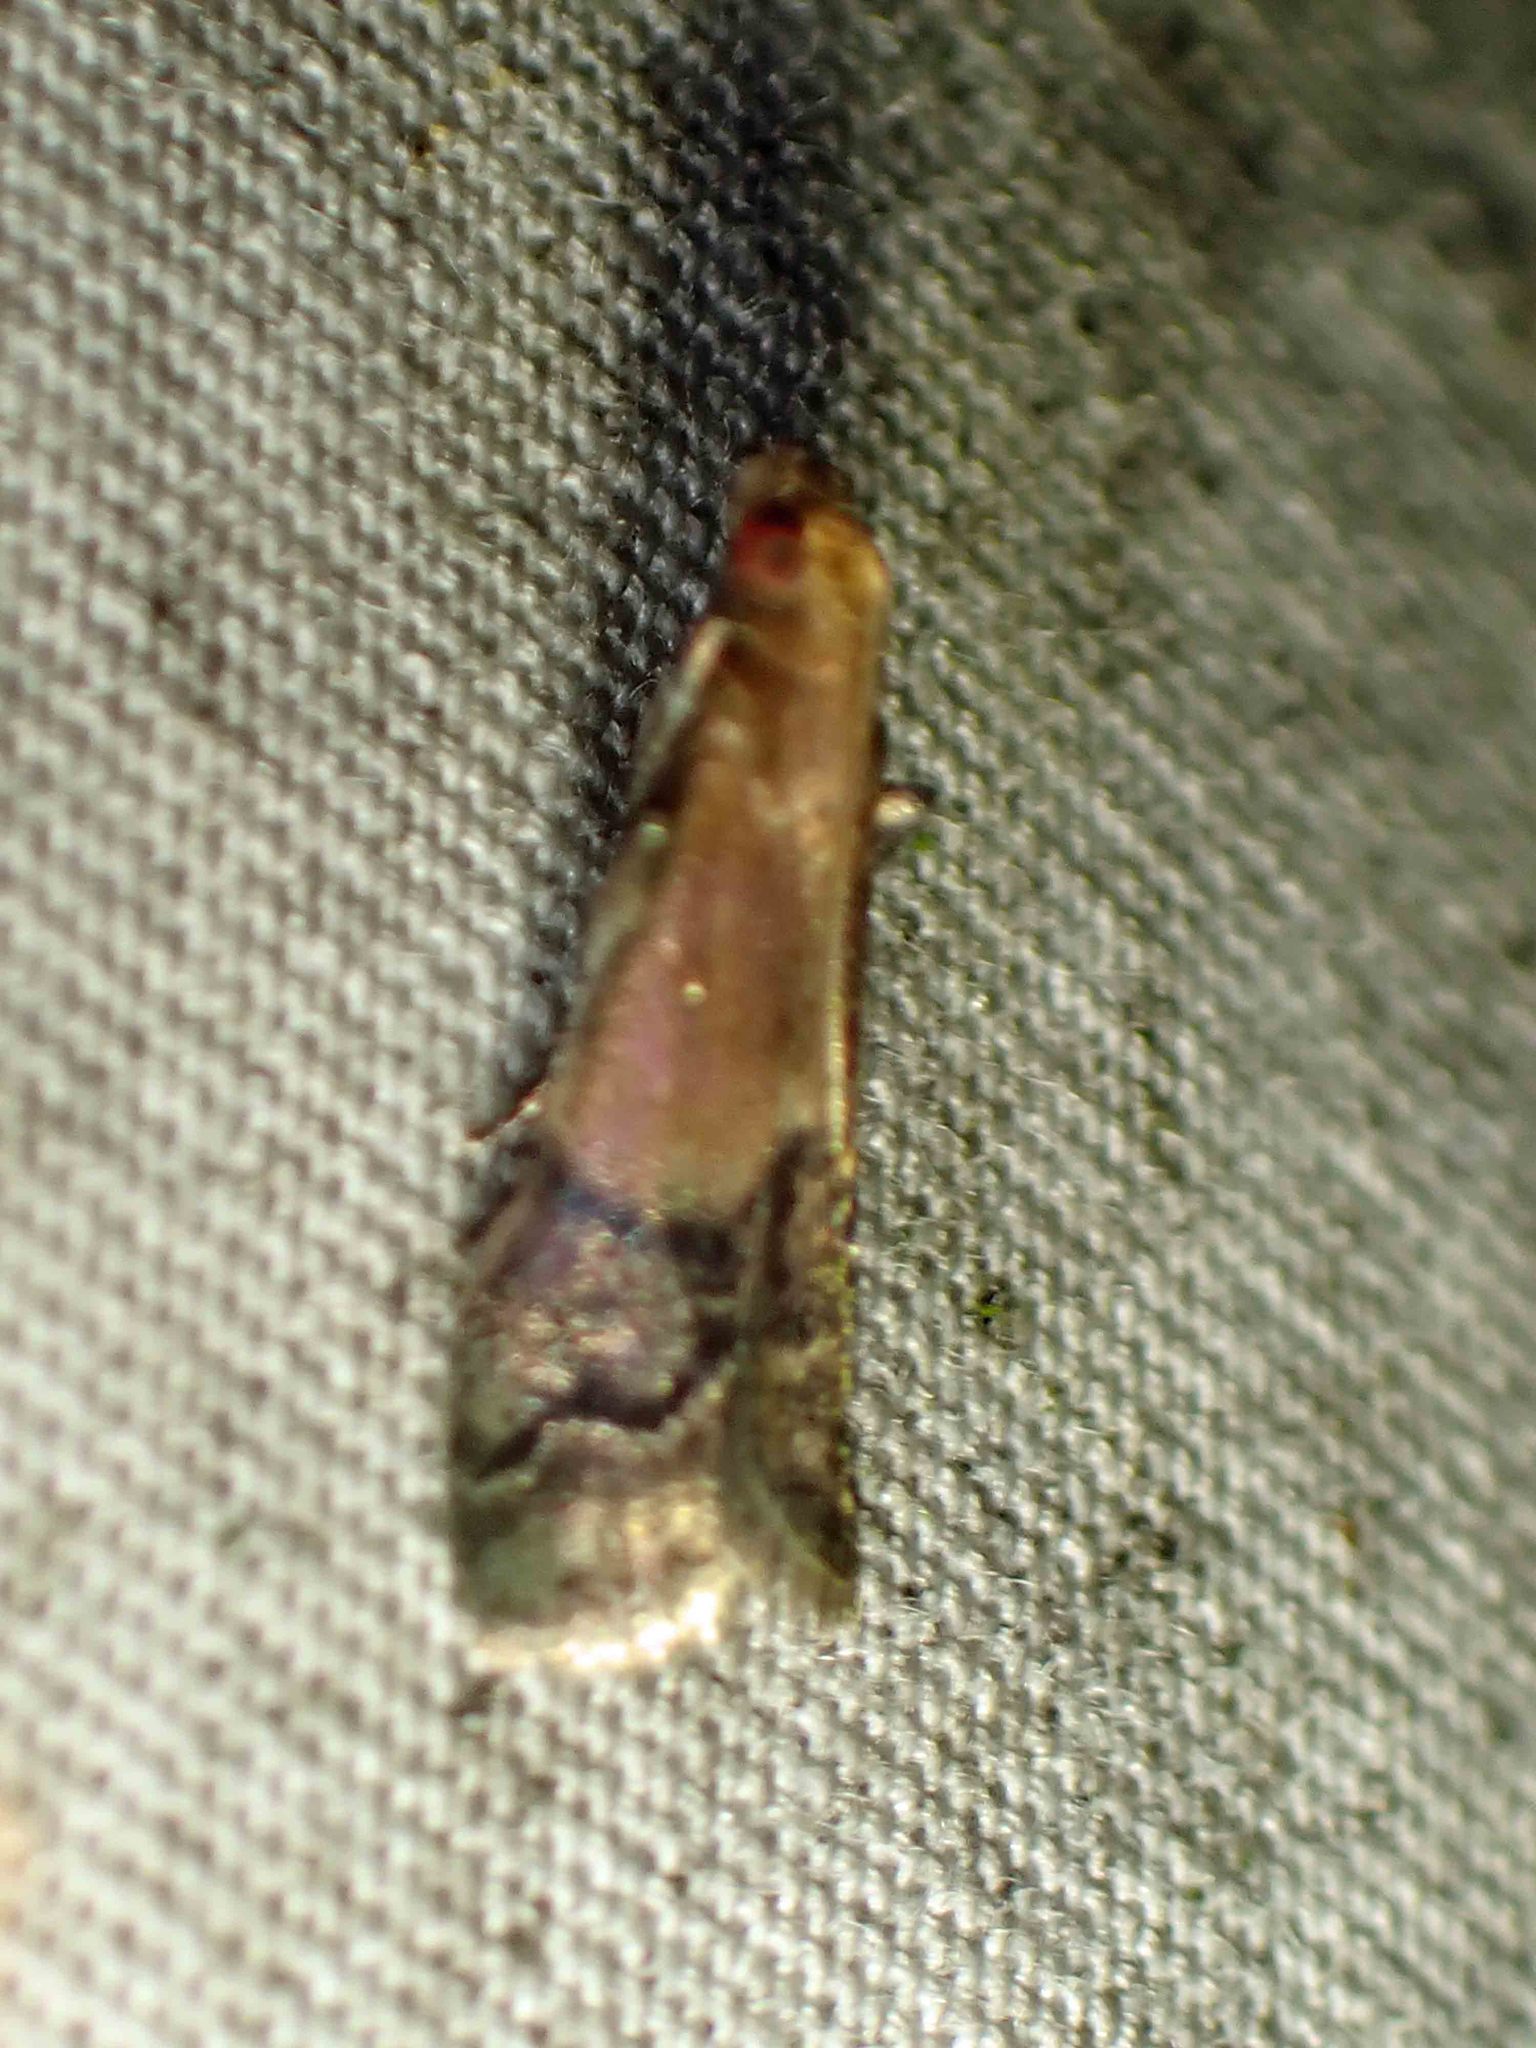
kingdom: Animalia
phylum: Arthropoda
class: Insecta
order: Lepidoptera
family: Pyralidae
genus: Eulogia
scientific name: Eulogia ochrifrontella
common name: Broad-banded eulogia moth
